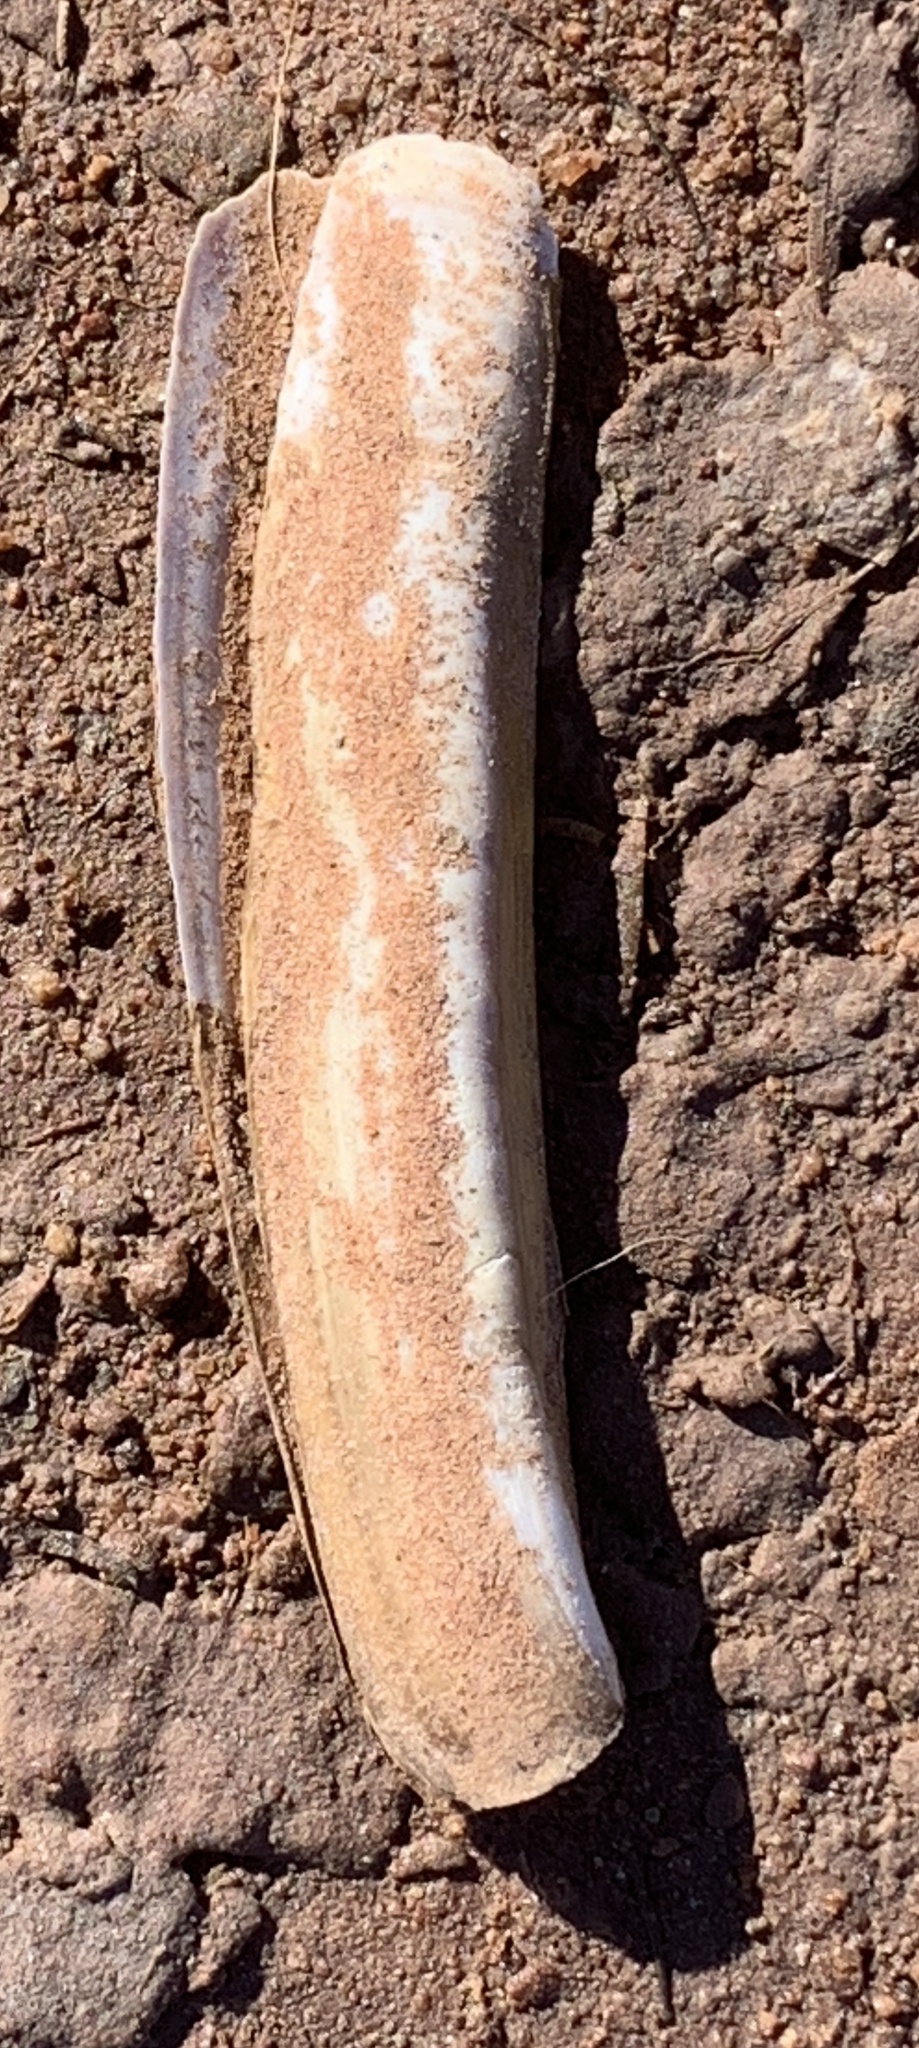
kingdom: Animalia
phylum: Mollusca
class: Bivalvia
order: Adapedonta
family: Pharidae
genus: Ensis
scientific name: Ensis leei
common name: American jack knife clam
